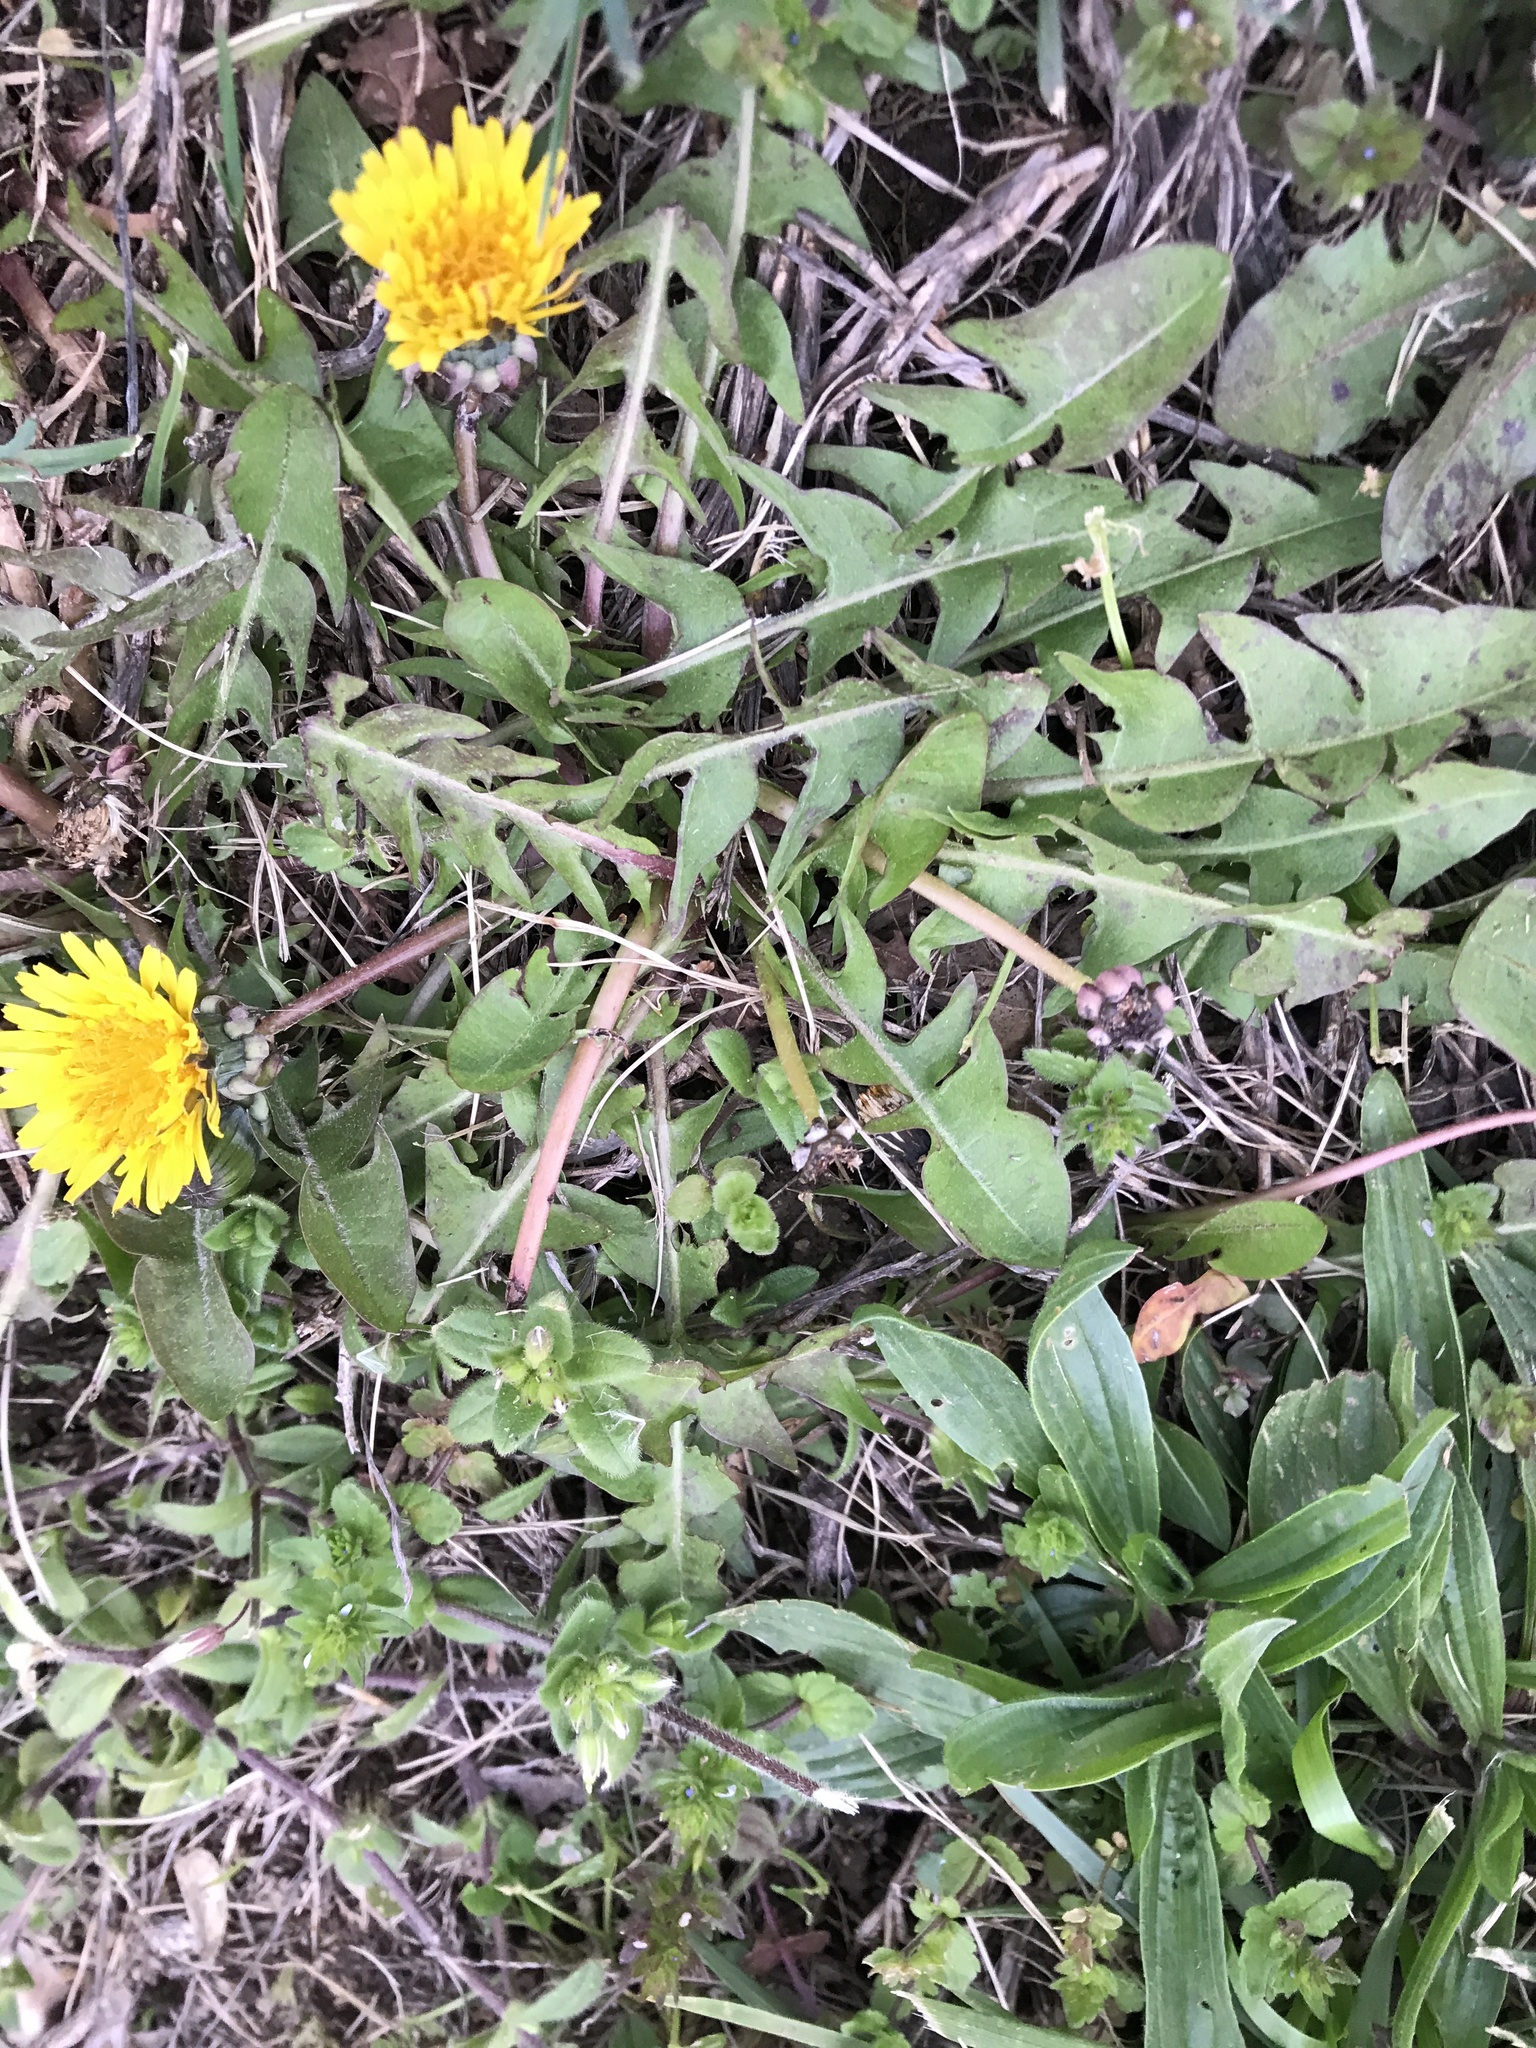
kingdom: Plantae
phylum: Tracheophyta
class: Magnoliopsida
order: Asterales
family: Asteraceae
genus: Taraxacum
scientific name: Taraxacum officinale
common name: Common dandelion
